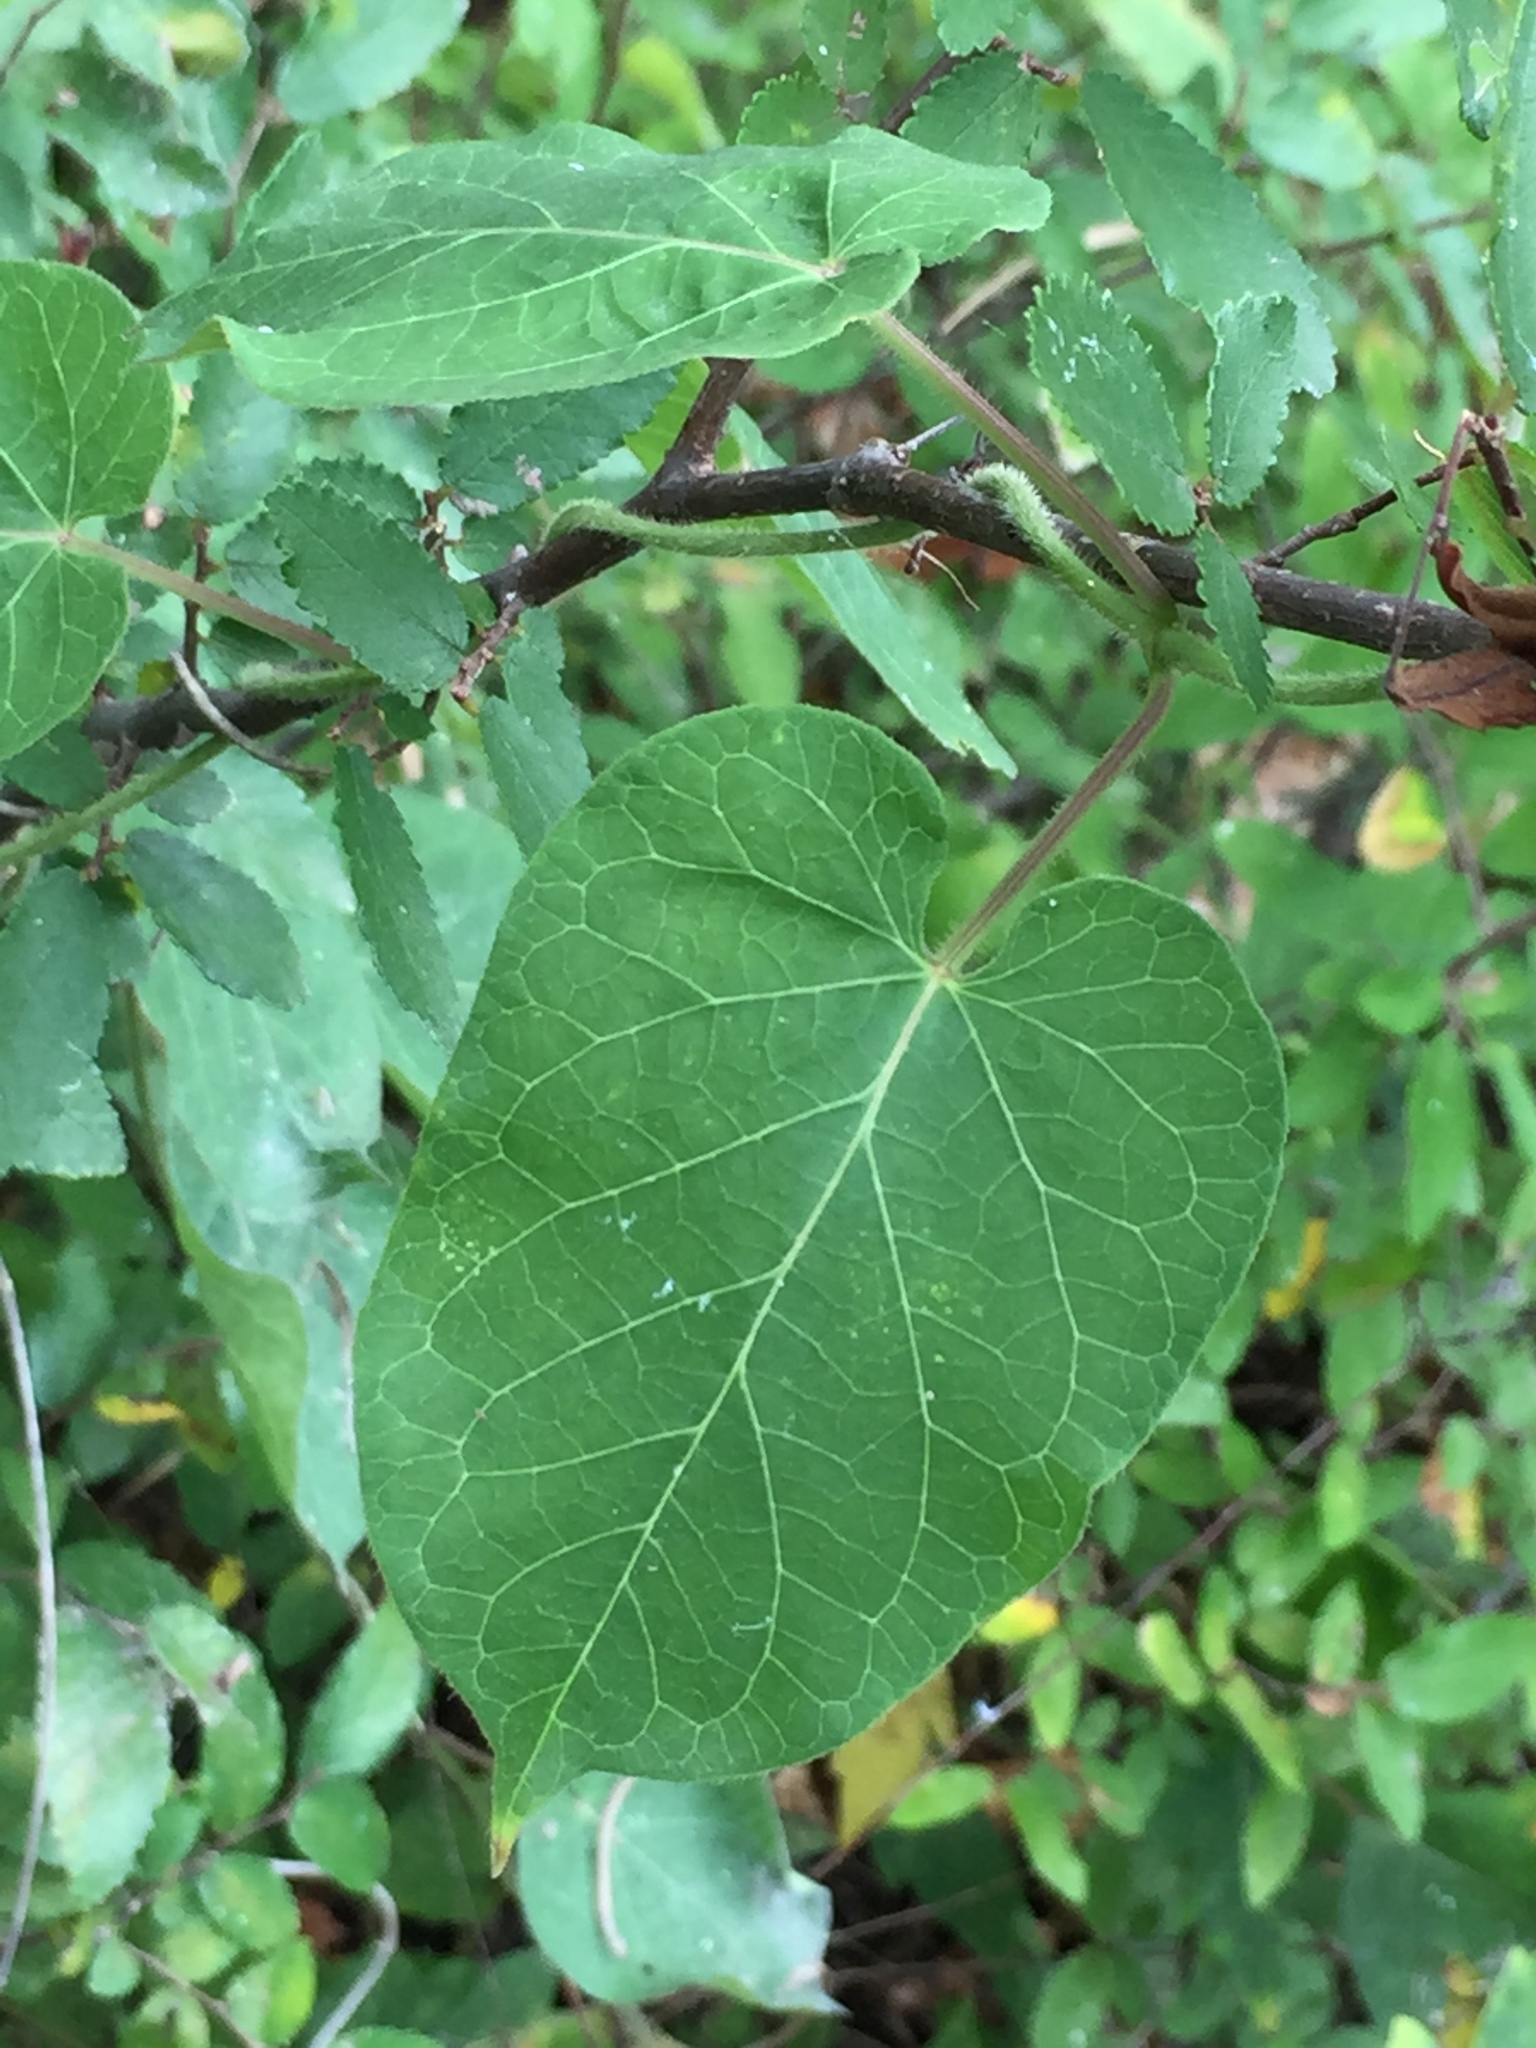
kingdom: Plantae
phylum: Tracheophyta
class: Magnoliopsida
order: Gentianales
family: Apocynaceae
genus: Gonolobus
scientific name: Gonolobus suberosus
